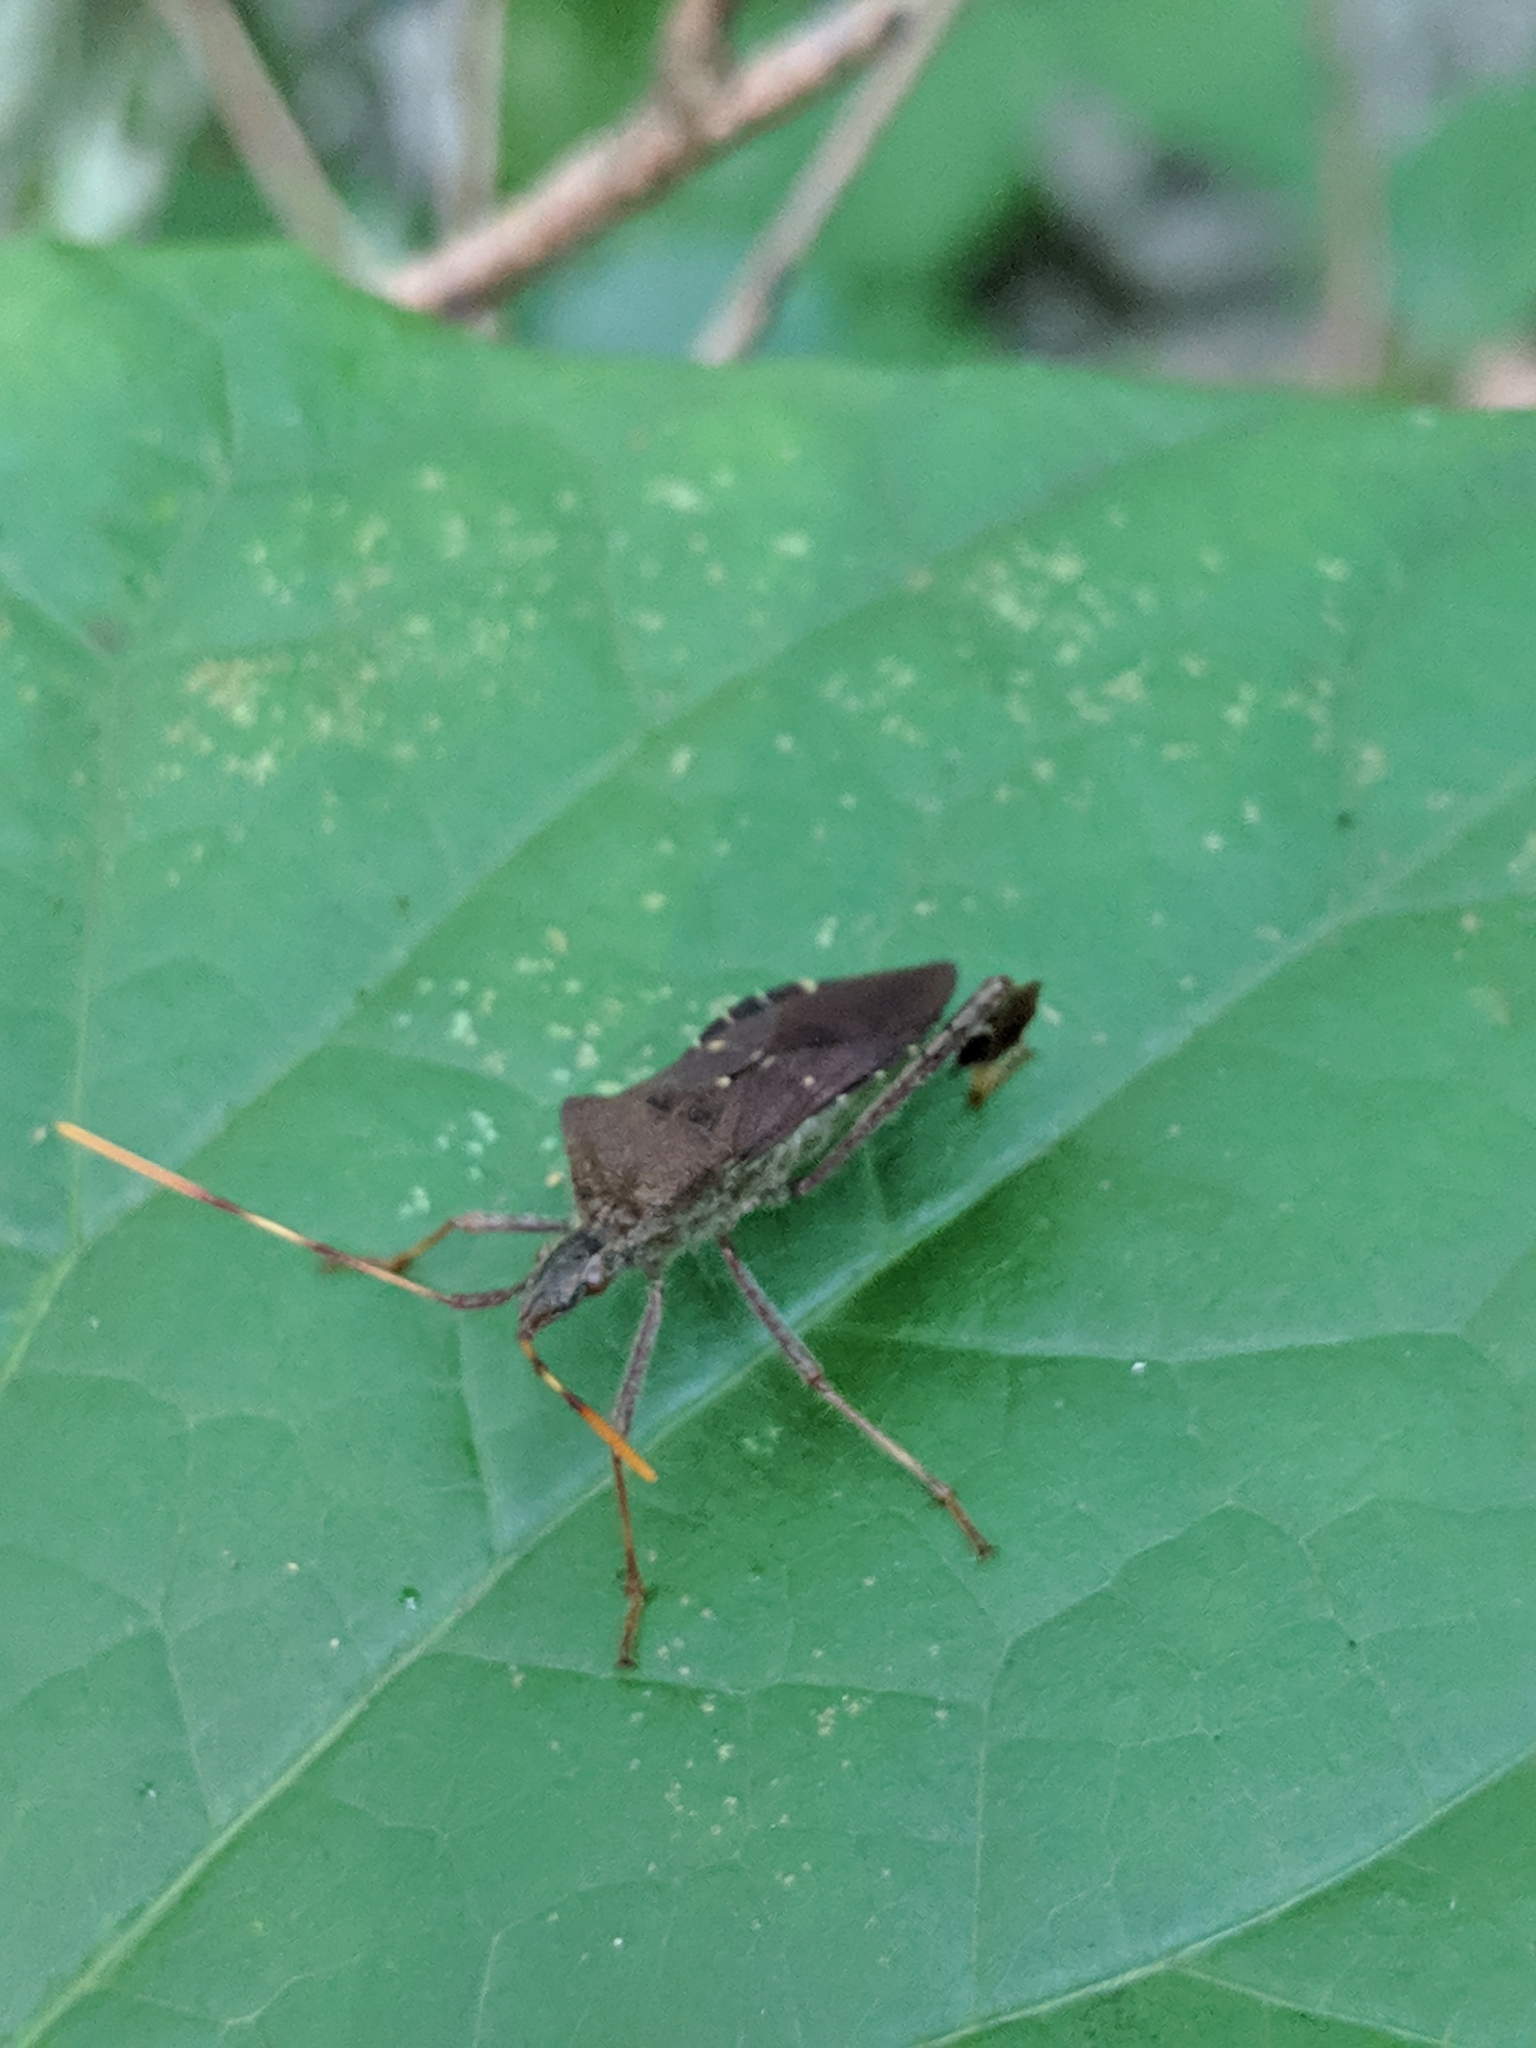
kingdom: Animalia
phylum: Arthropoda
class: Insecta
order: Hemiptera
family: Coreidae
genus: Leptoglossus
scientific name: Leptoglossus oppositus
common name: Northern leaf-footed bug
